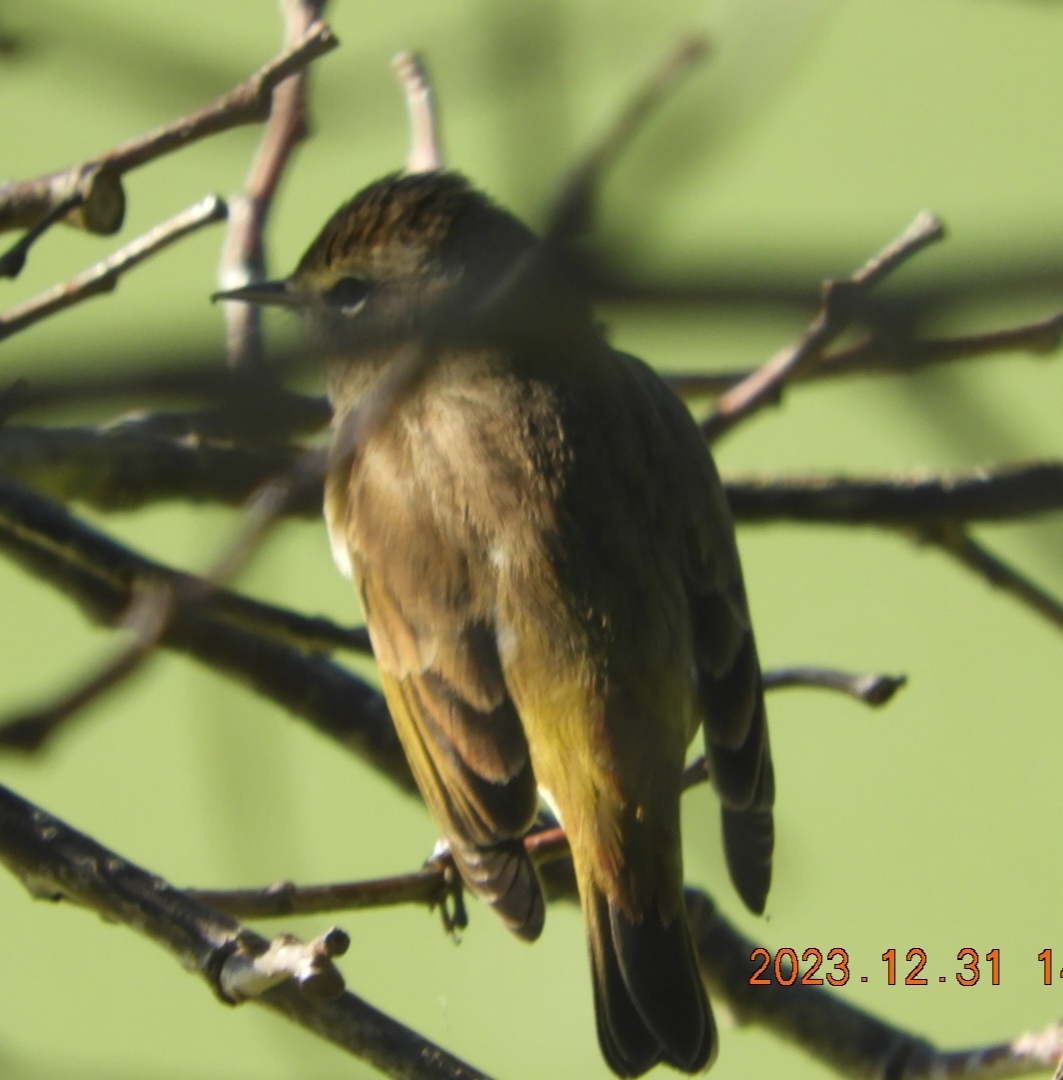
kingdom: Animalia
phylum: Chordata
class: Aves
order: Passeriformes
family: Parulidae
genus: Setophaga
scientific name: Setophaga palmarum
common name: Palm warbler
